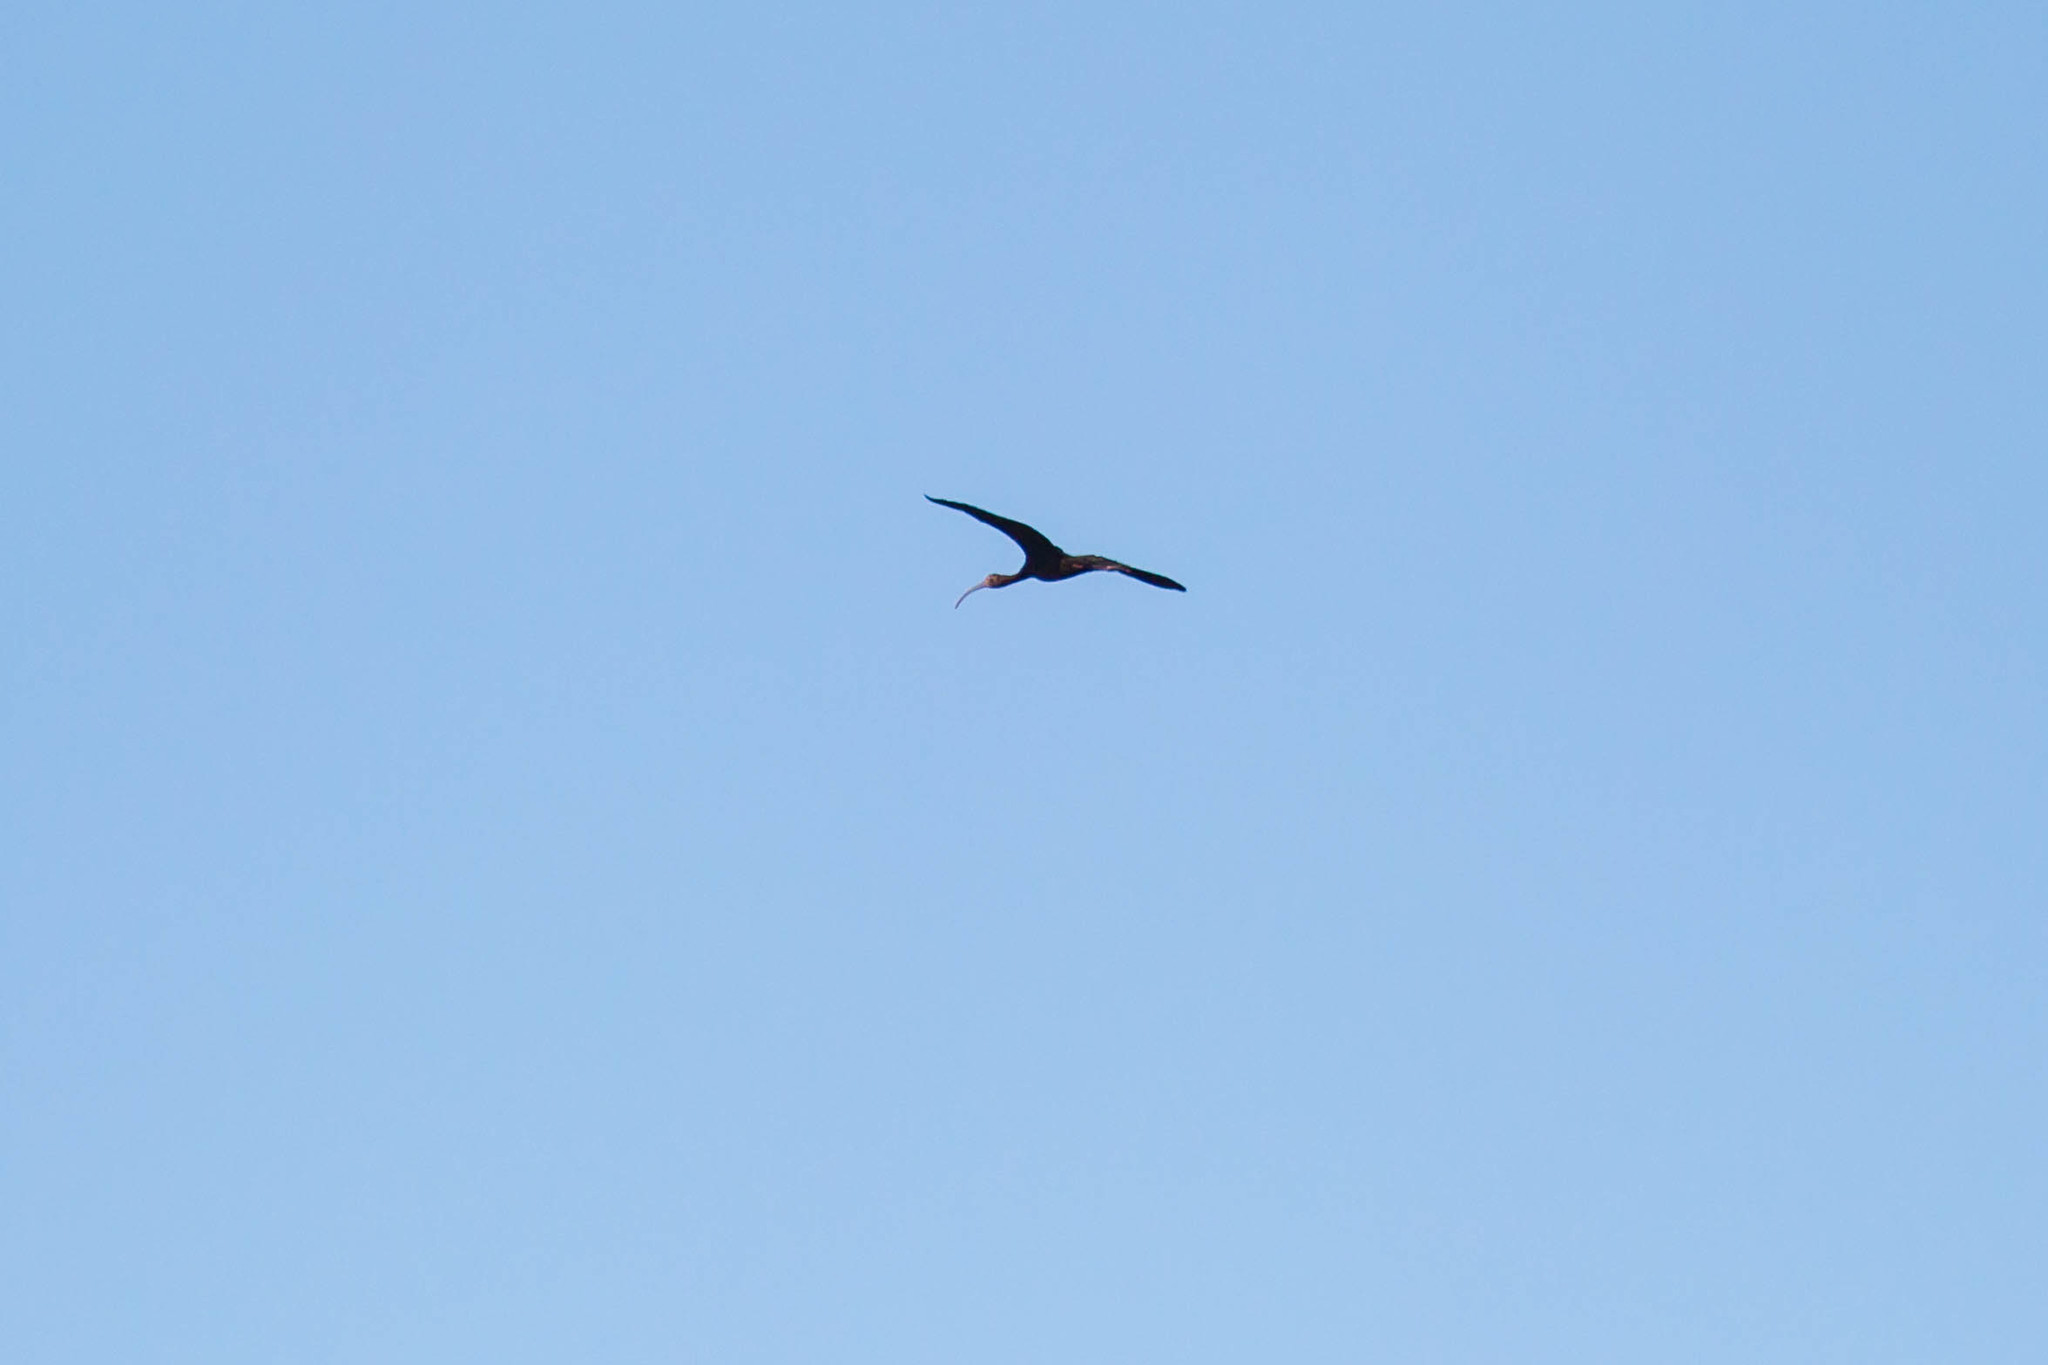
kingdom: Animalia
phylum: Chordata
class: Aves
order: Pelecaniformes
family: Threskiornithidae
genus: Plegadis
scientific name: Plegadis
